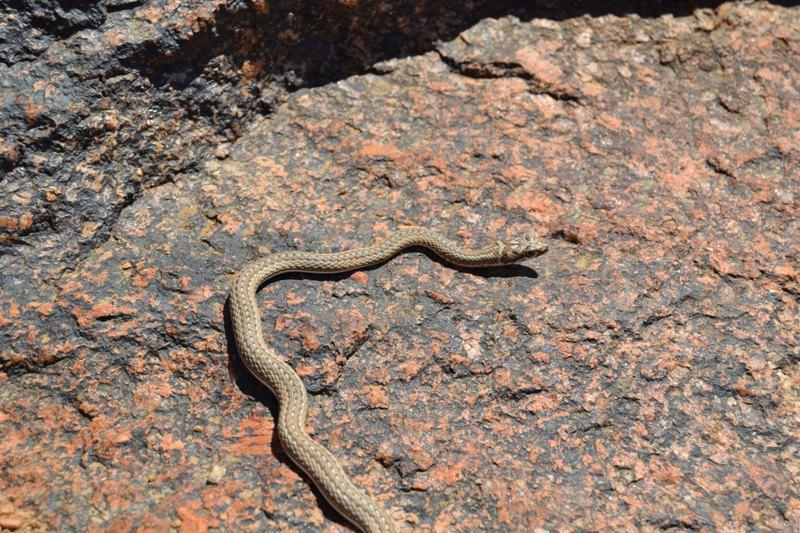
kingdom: Animalia
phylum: Chordata
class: Squamata
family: Psammophiidae
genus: Psammophis
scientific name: Psammophis notostictus
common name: Karoo sand snake
